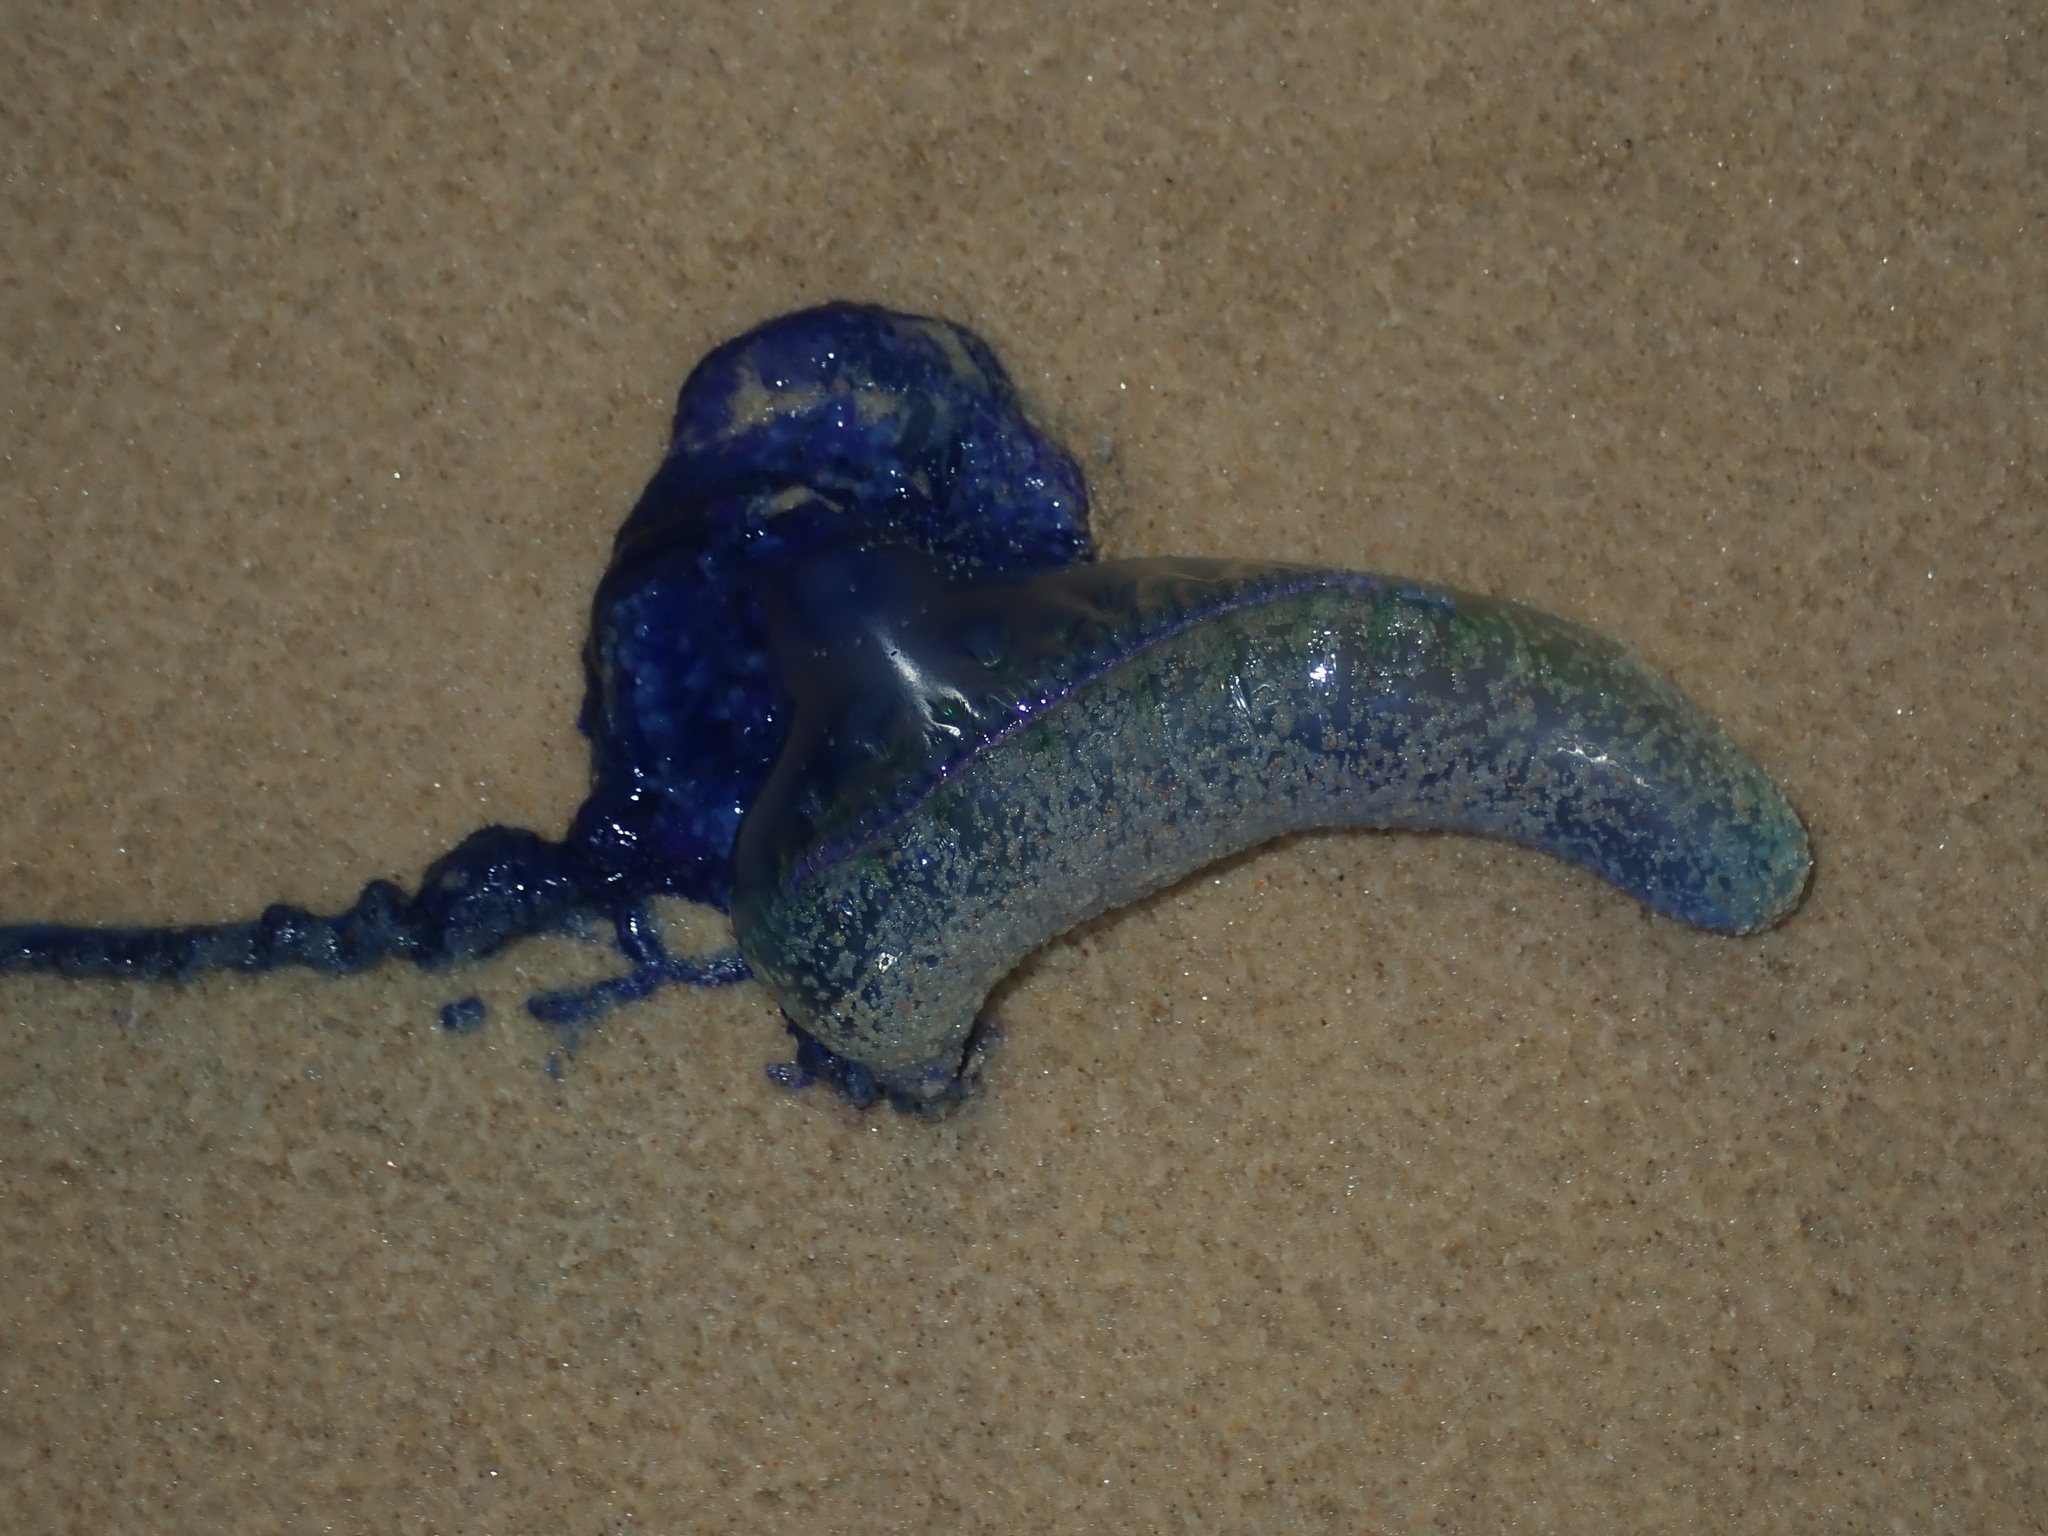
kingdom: Animalia
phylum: Cnidaria
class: Hydrozoa
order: Siphonophorae
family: Physaliidae
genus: Physalia
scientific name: Physalia physalis
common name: Portuguese man-of-war
